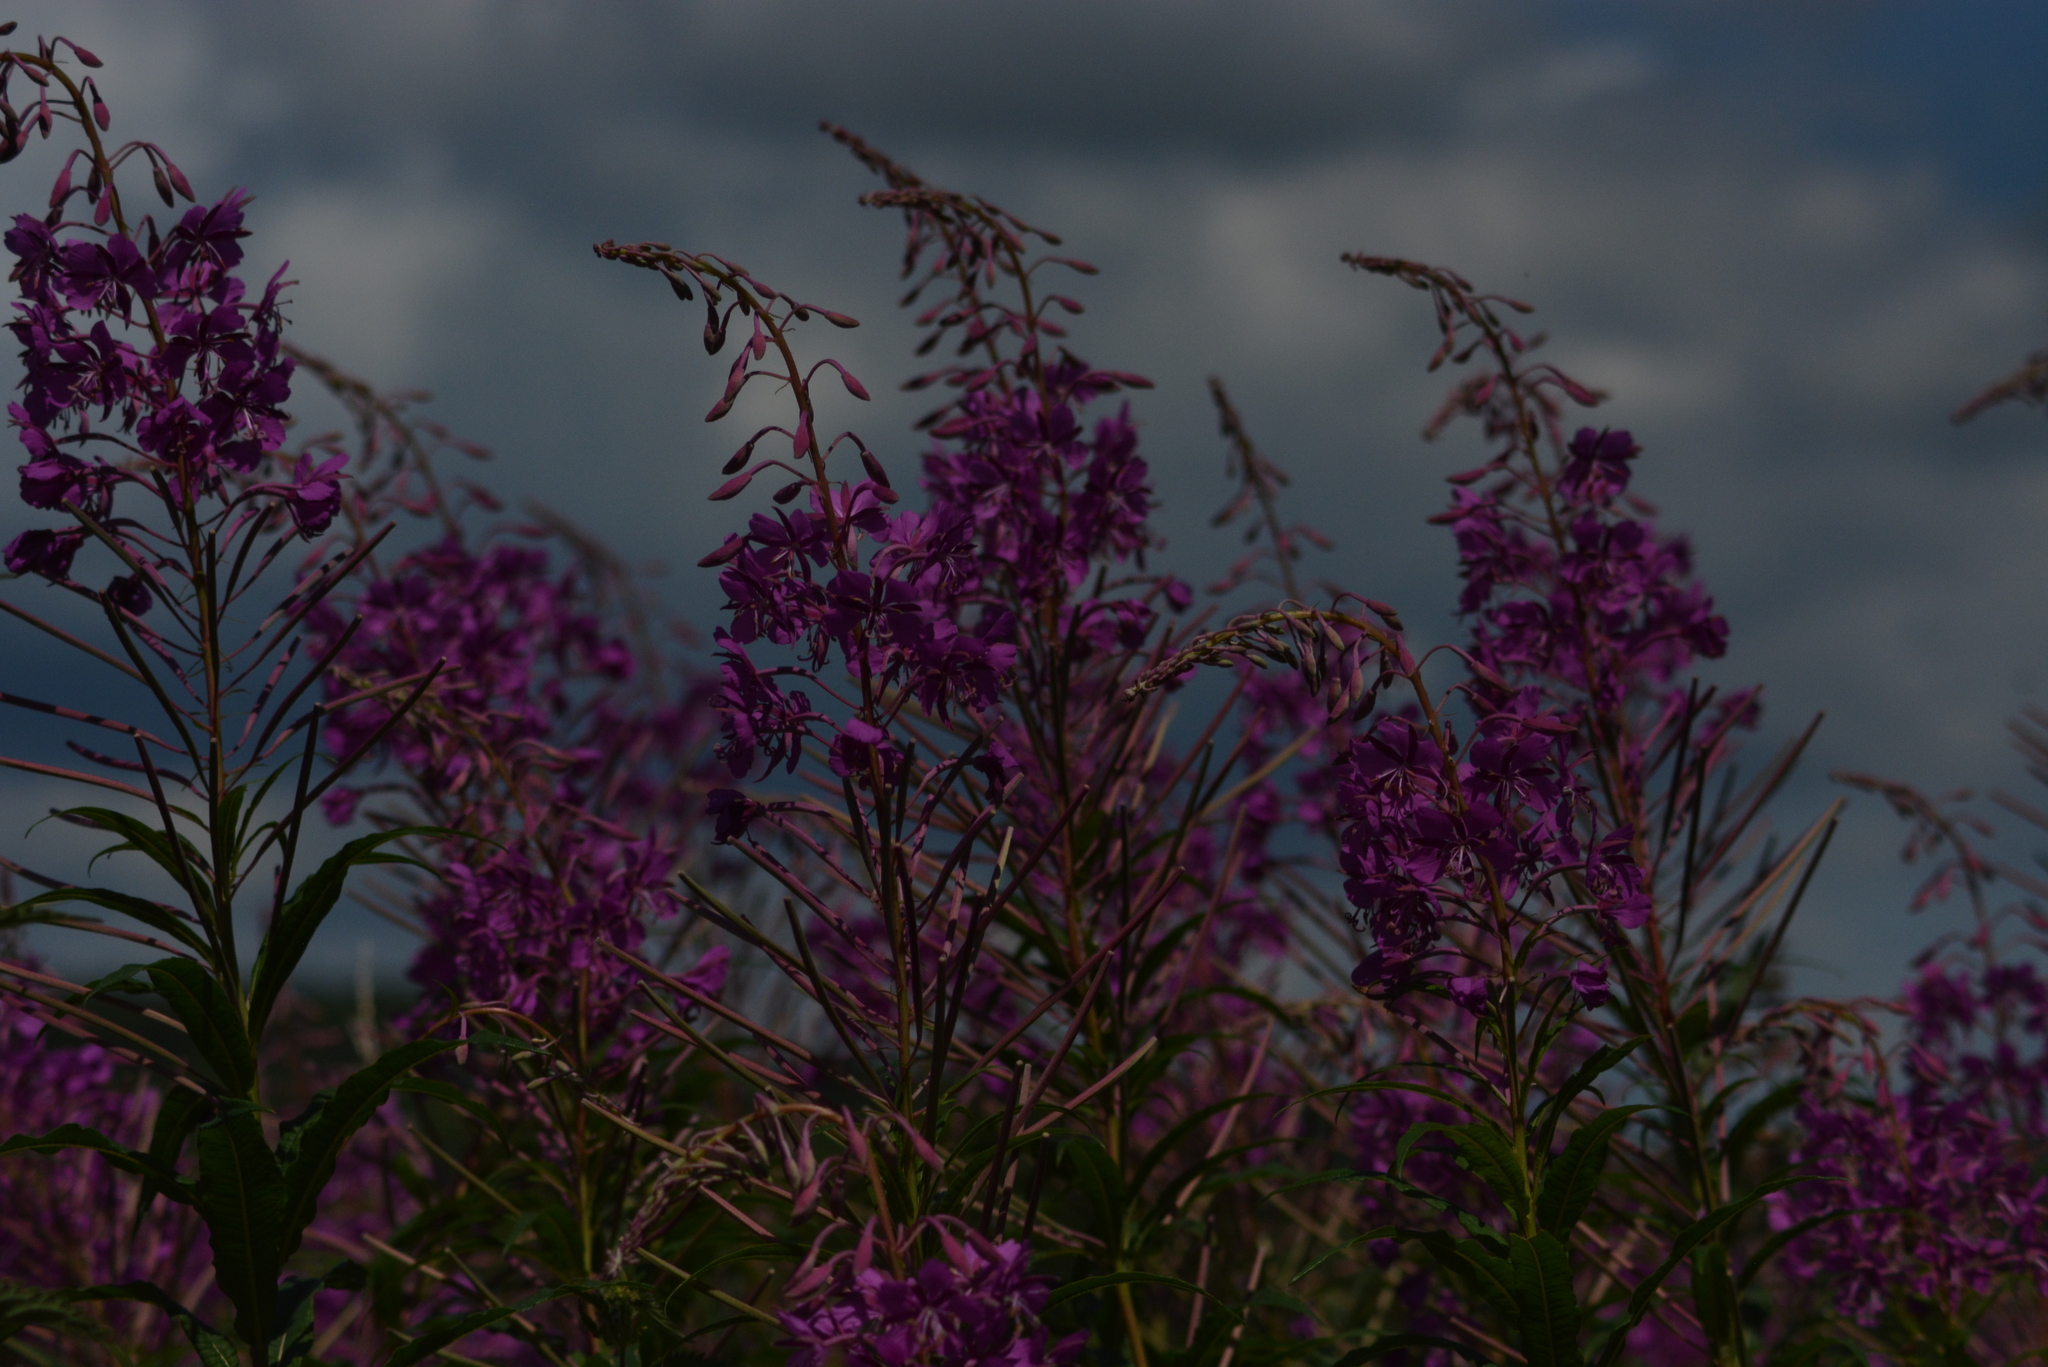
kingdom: Plantae
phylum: Tracheophyta
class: Magnoliopsida
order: Myrtales
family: Onagraceae
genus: Chamaenerion
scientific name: Chamaenerion angustifolium
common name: Fireweed
